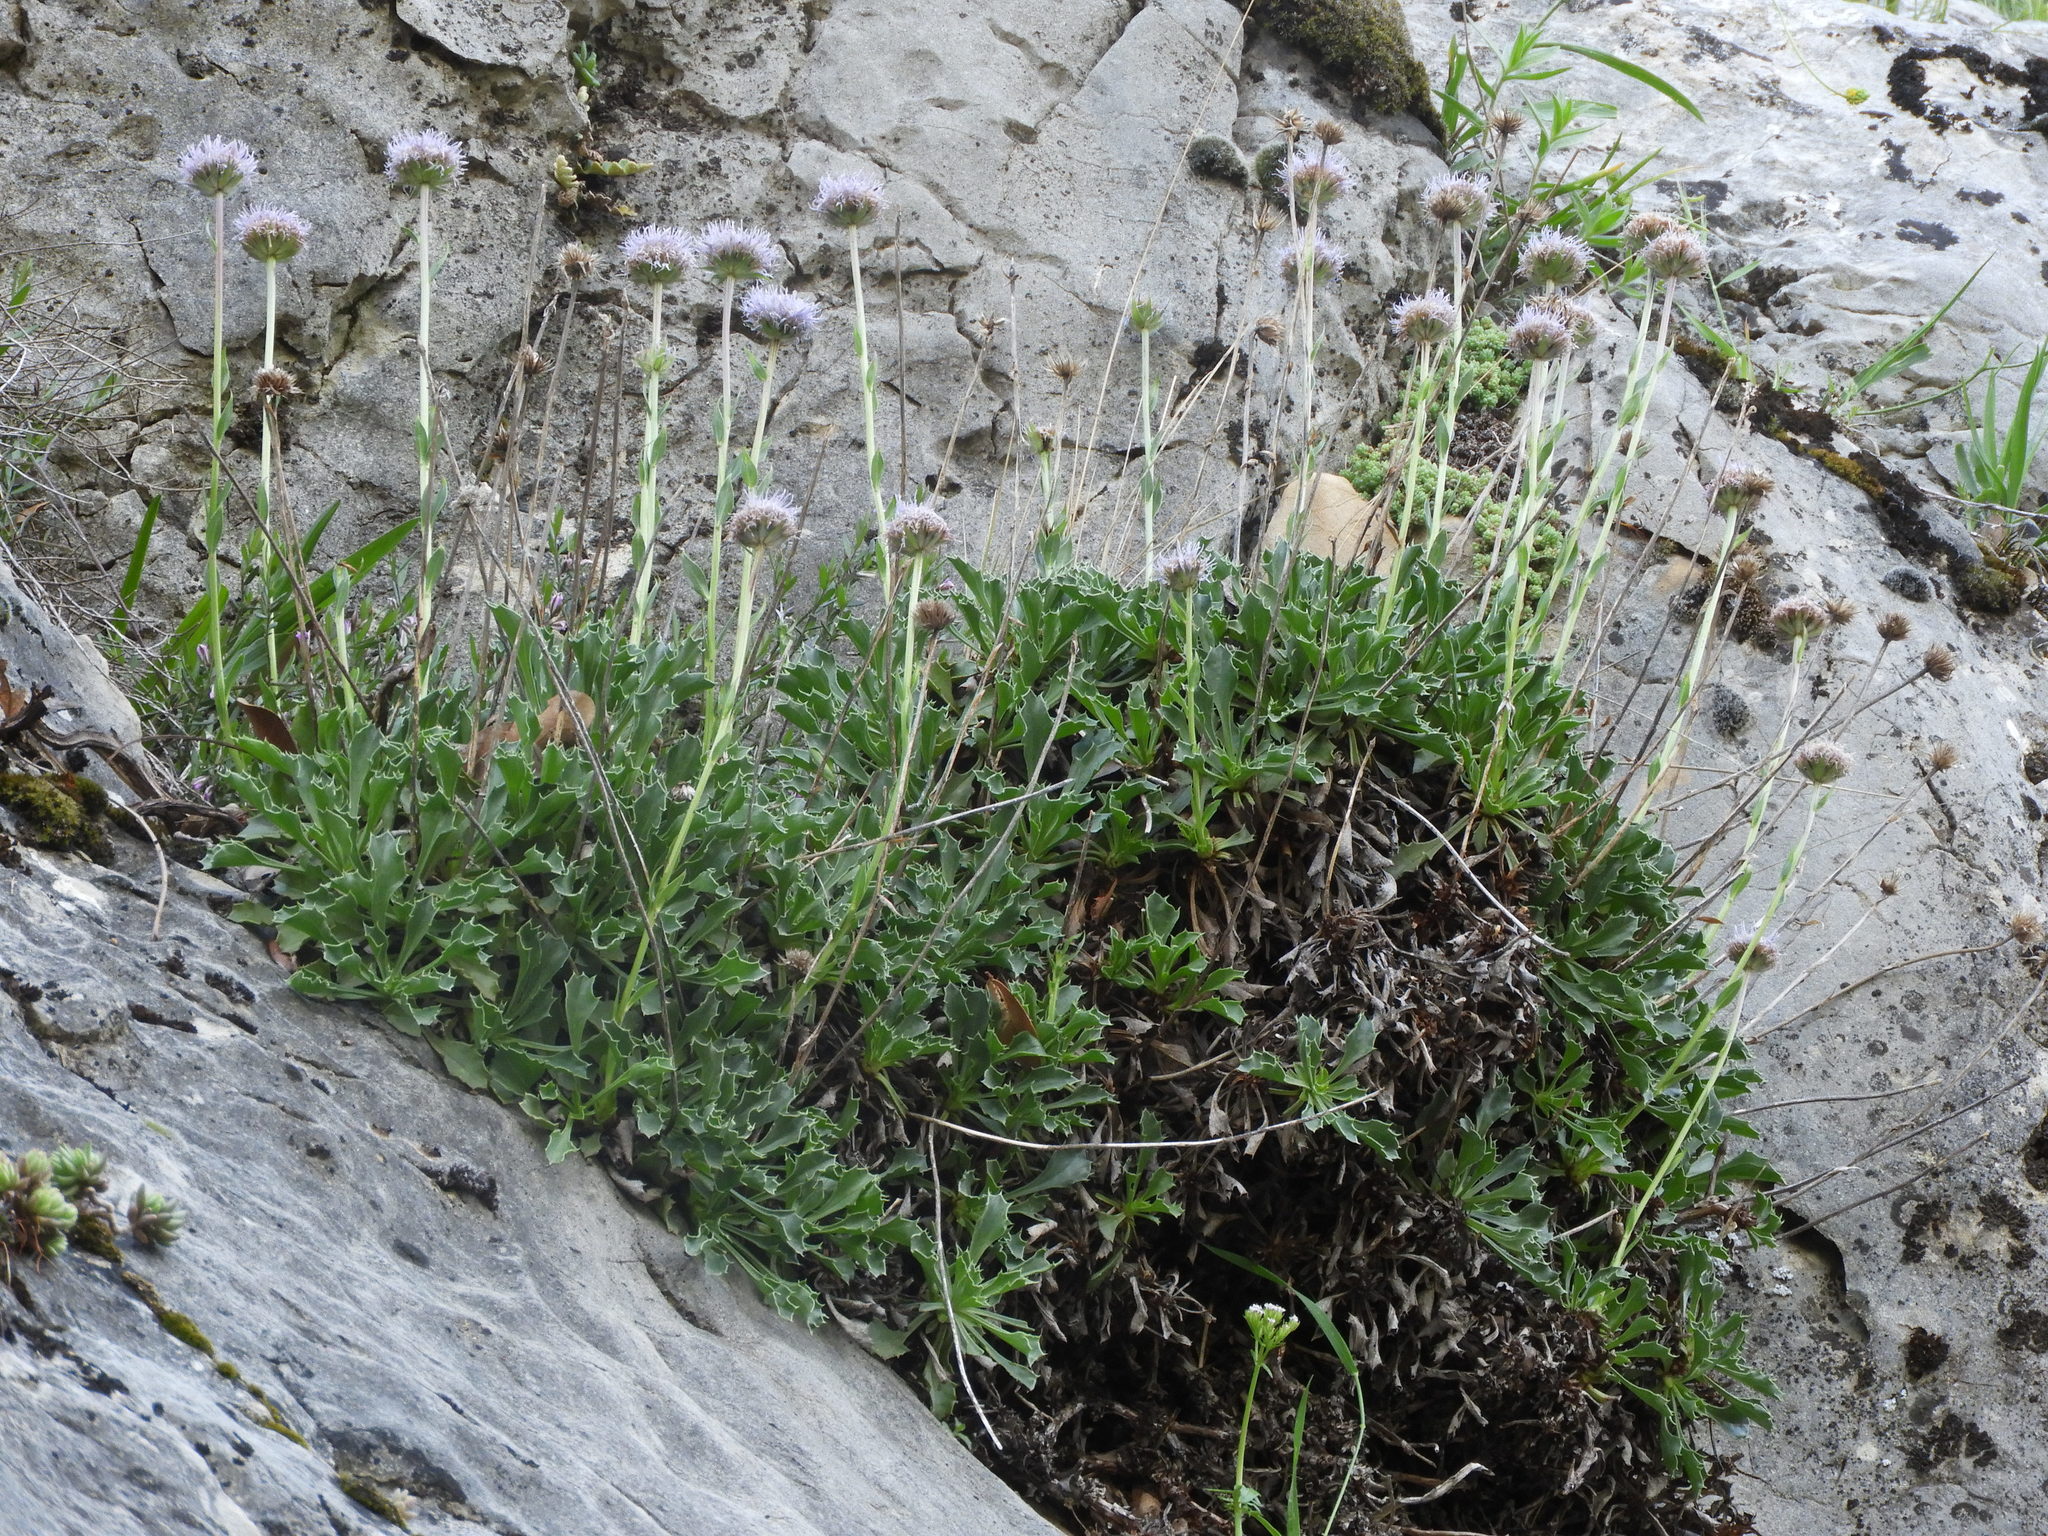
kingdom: Plantae
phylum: Tracheophyta
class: Magnoliopsida
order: Lamiales
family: Plantaginaceae
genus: Globularia
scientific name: Globularia spinosa
